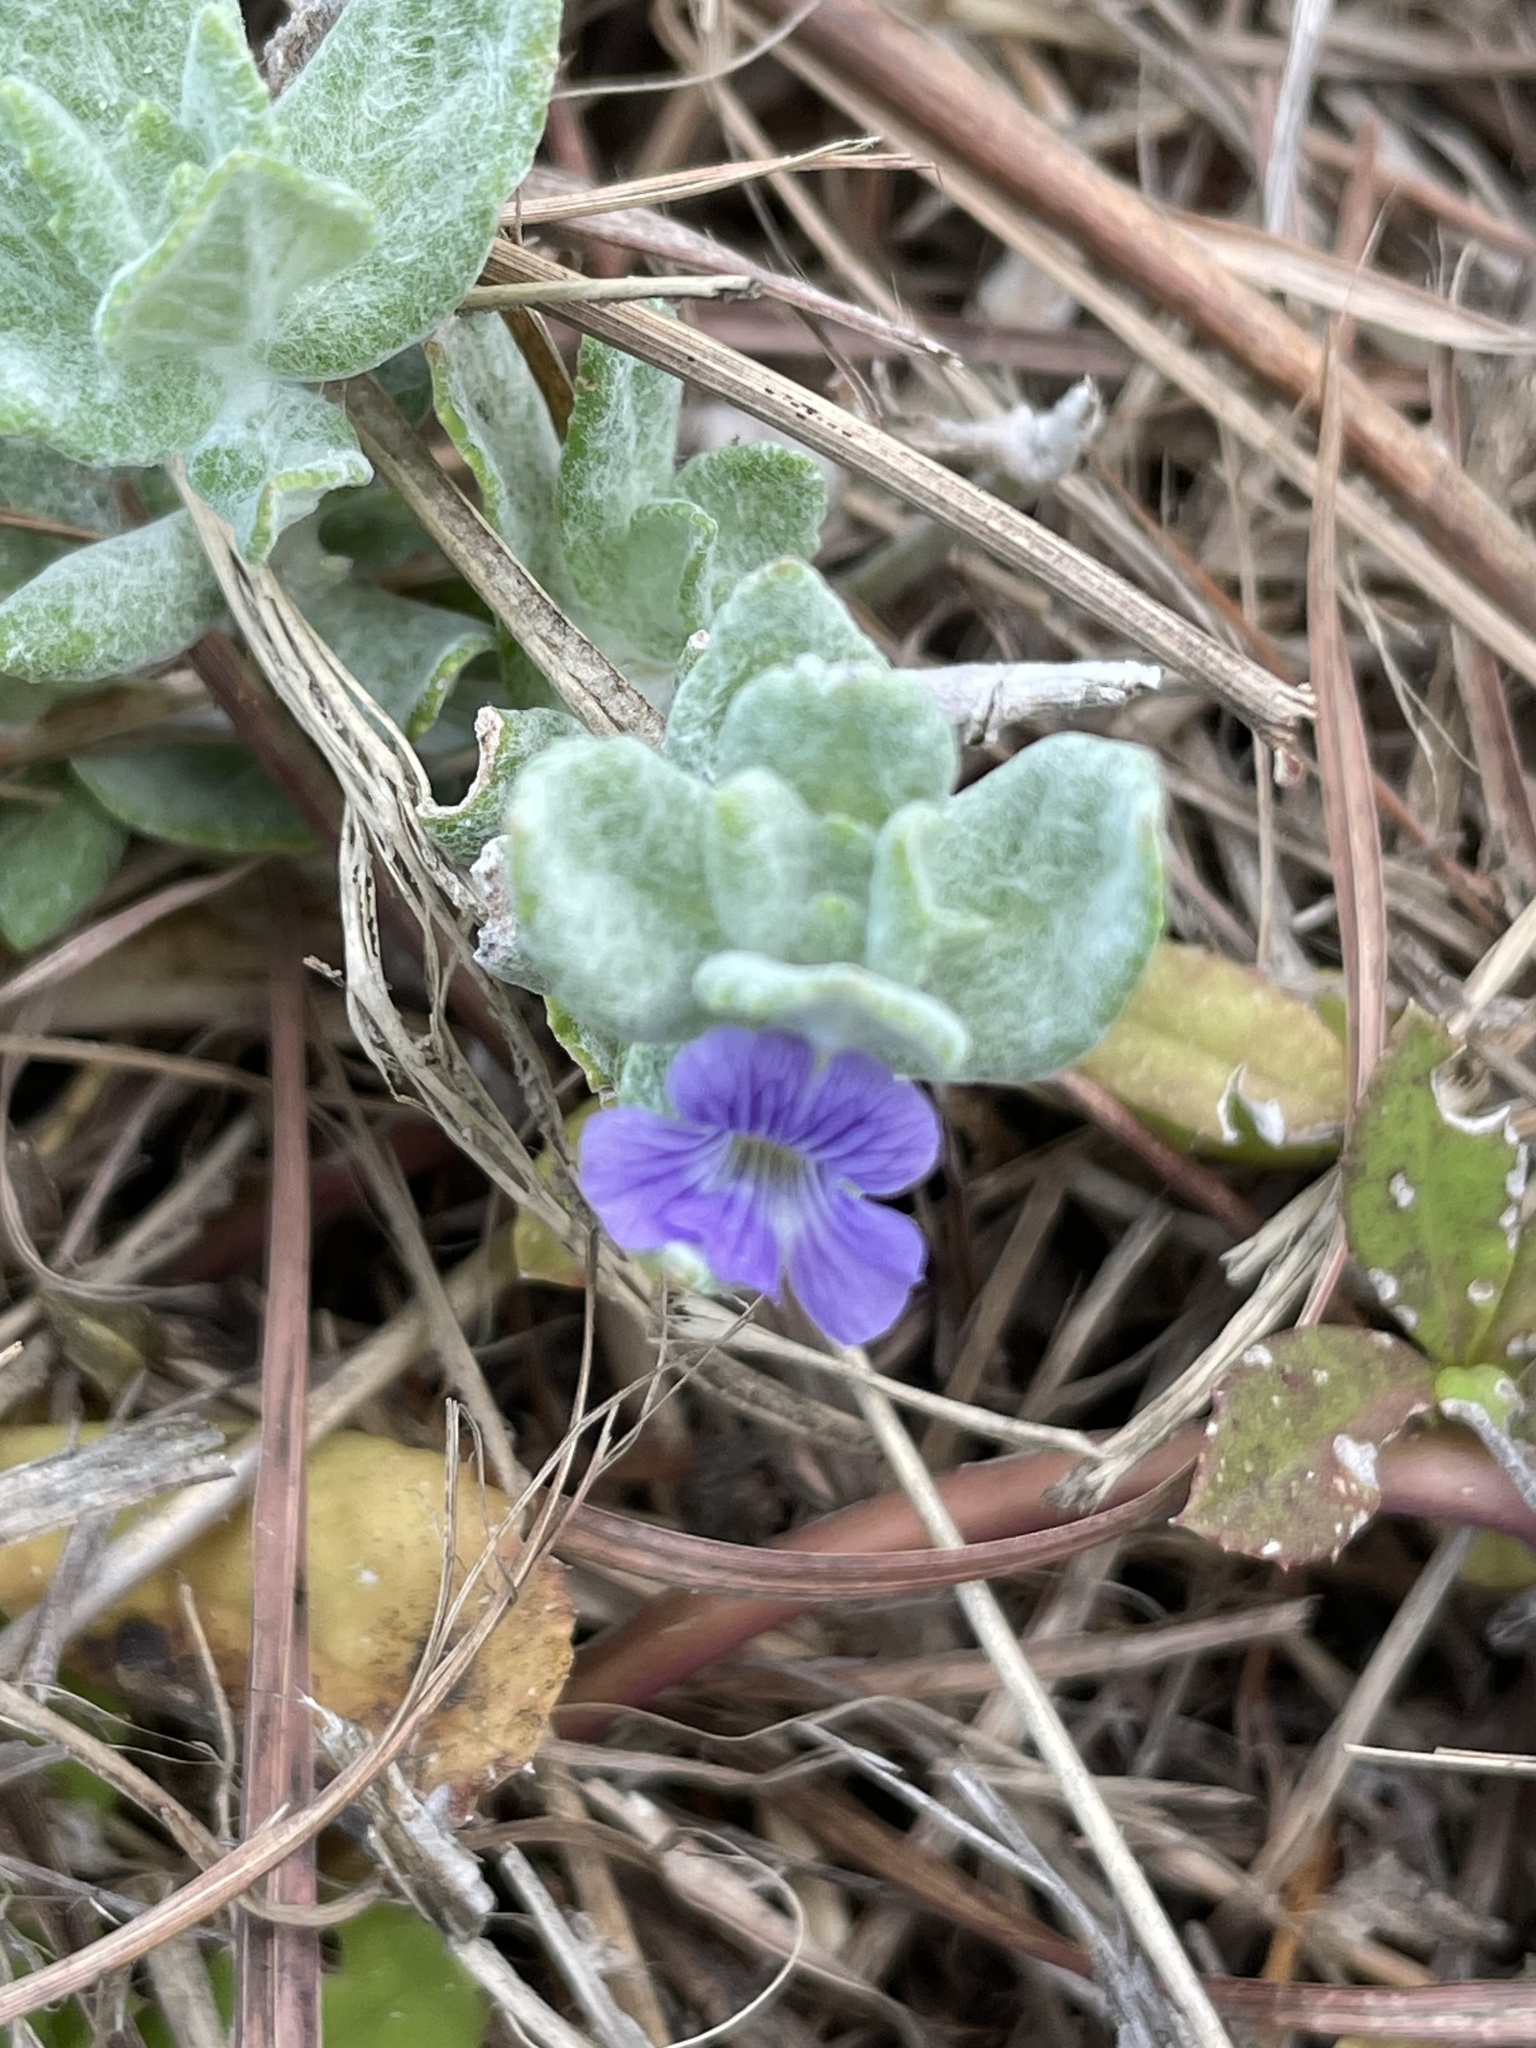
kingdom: Plantae
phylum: Tracheophyta
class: Magnoliopsida
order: Lamiales
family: Plantaginaceae
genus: Stemodia
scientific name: Stemodia lanata
